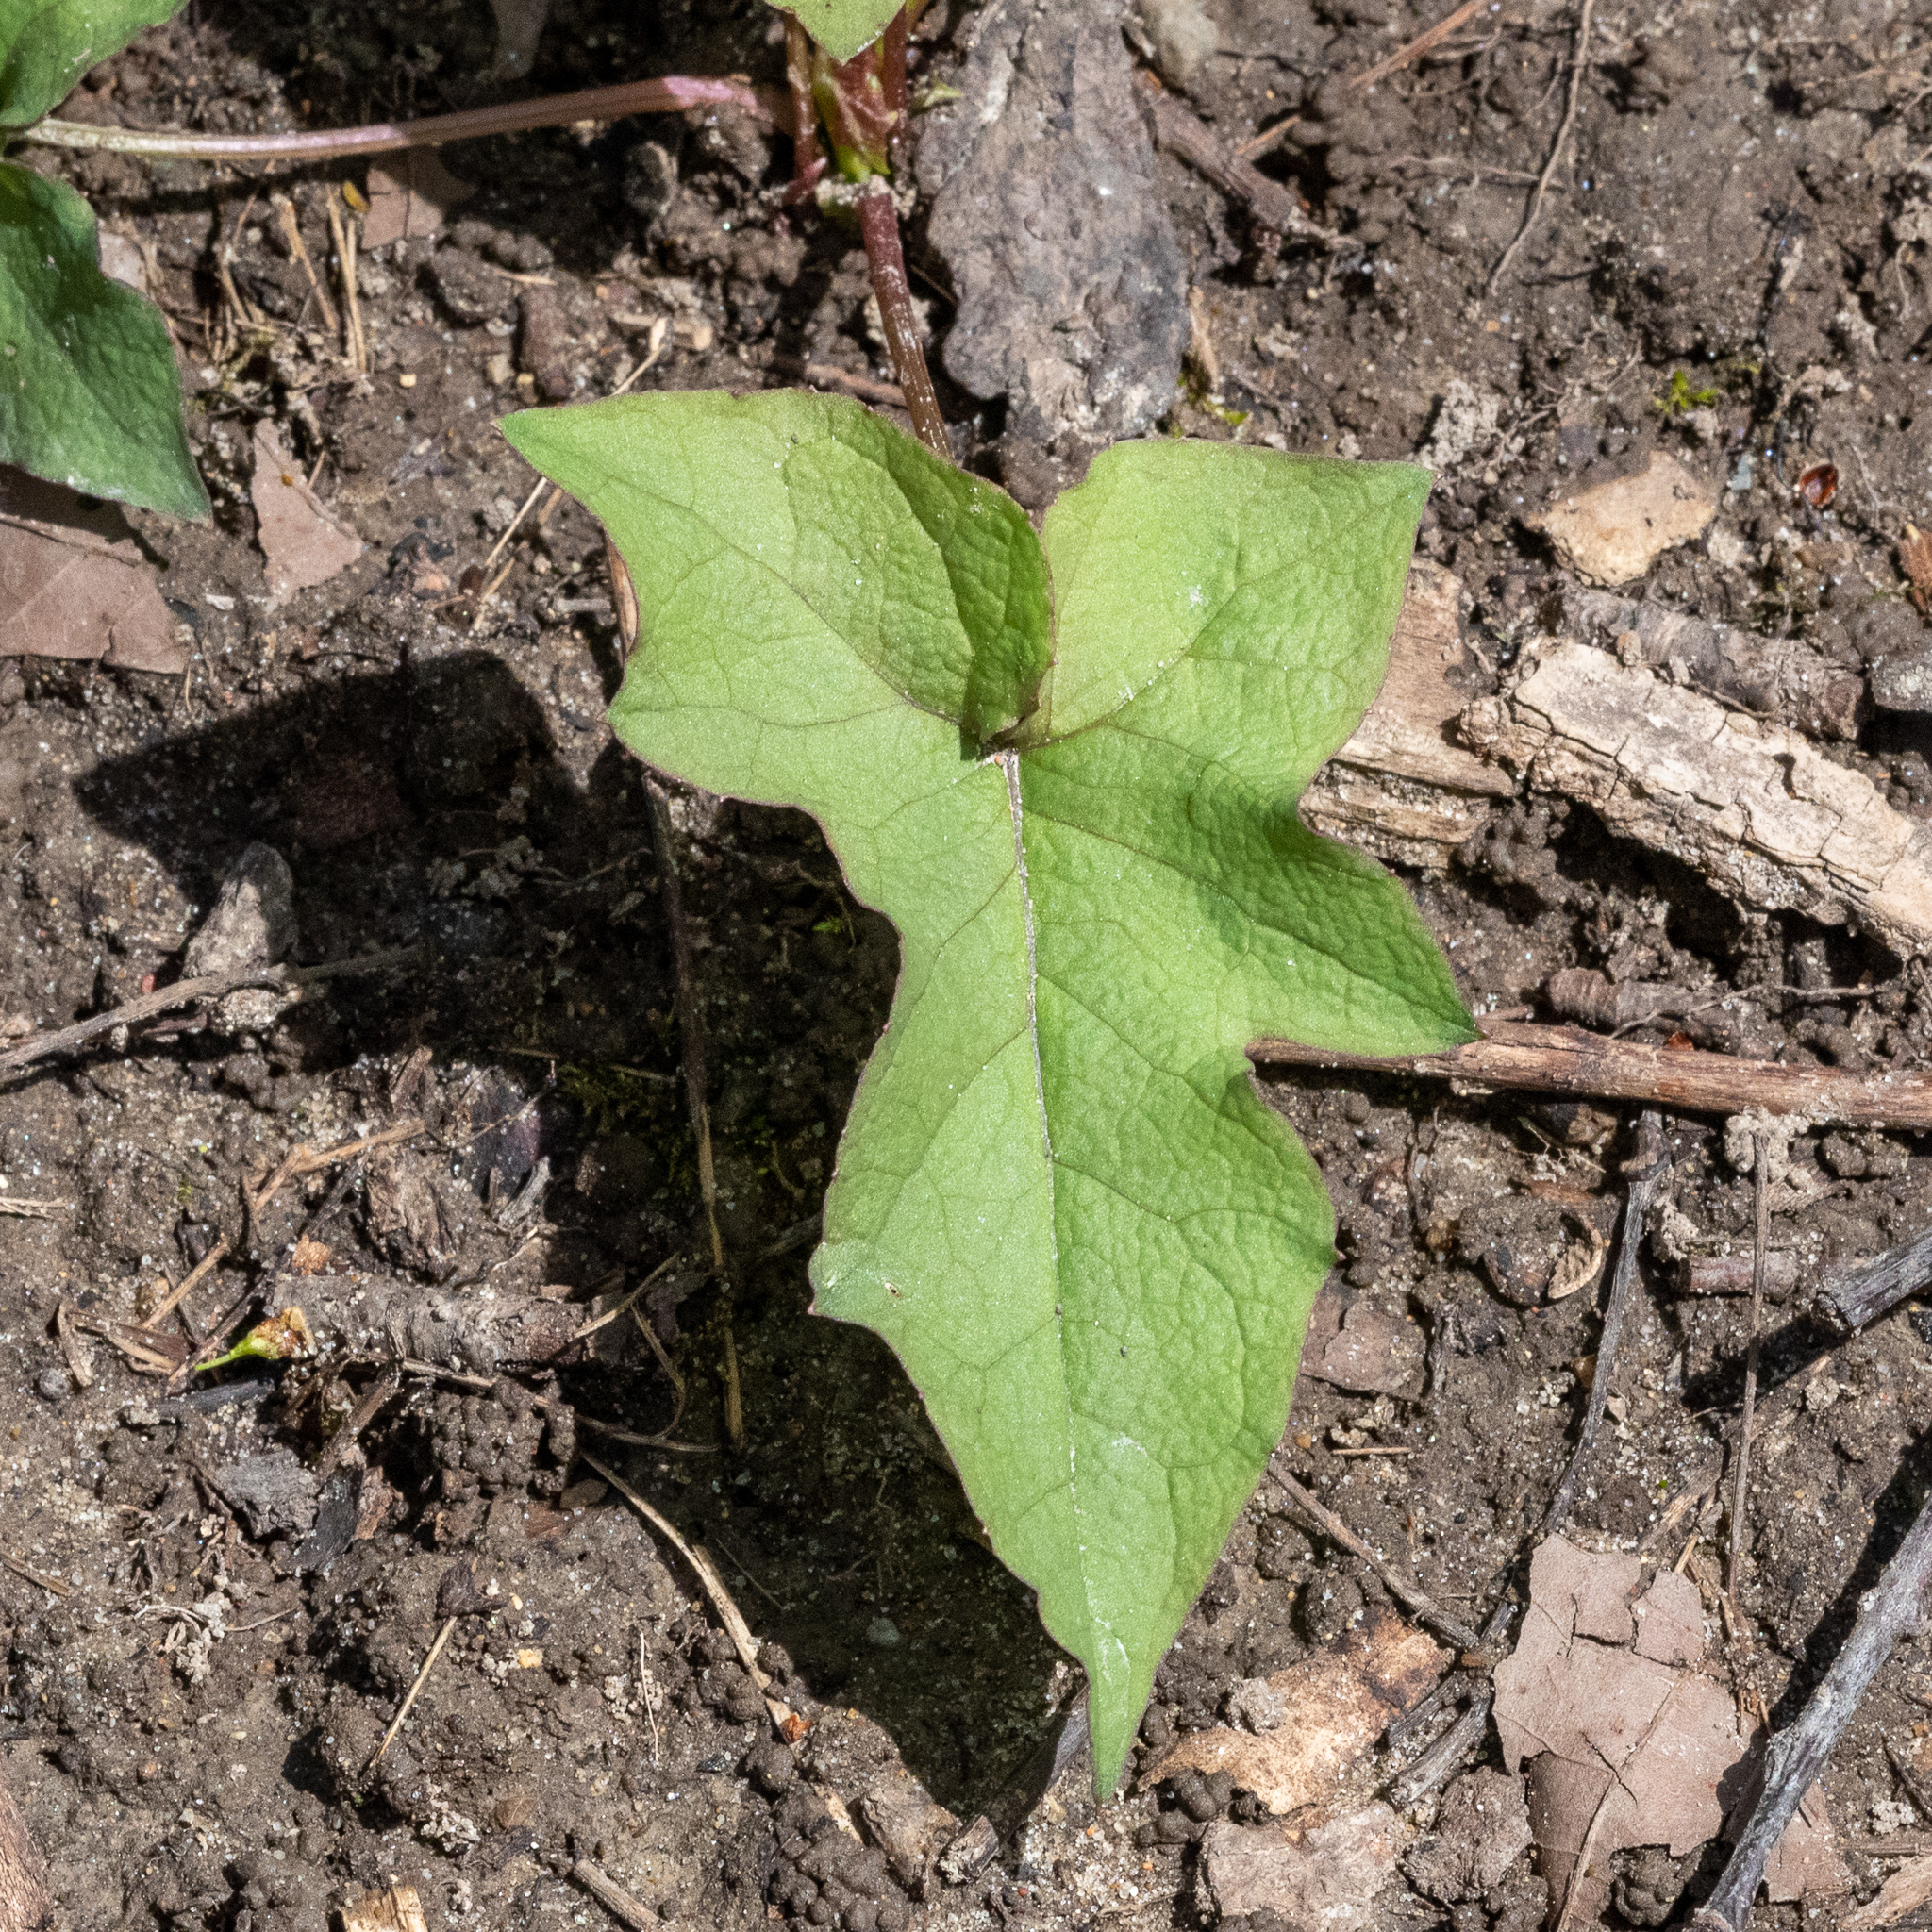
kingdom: Plantae
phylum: Tracheophyta
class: Magnoliopsida
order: Asterales
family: Asteraceae
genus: Nabalus
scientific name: Nabalus albus
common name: White rattlesnakeroot
